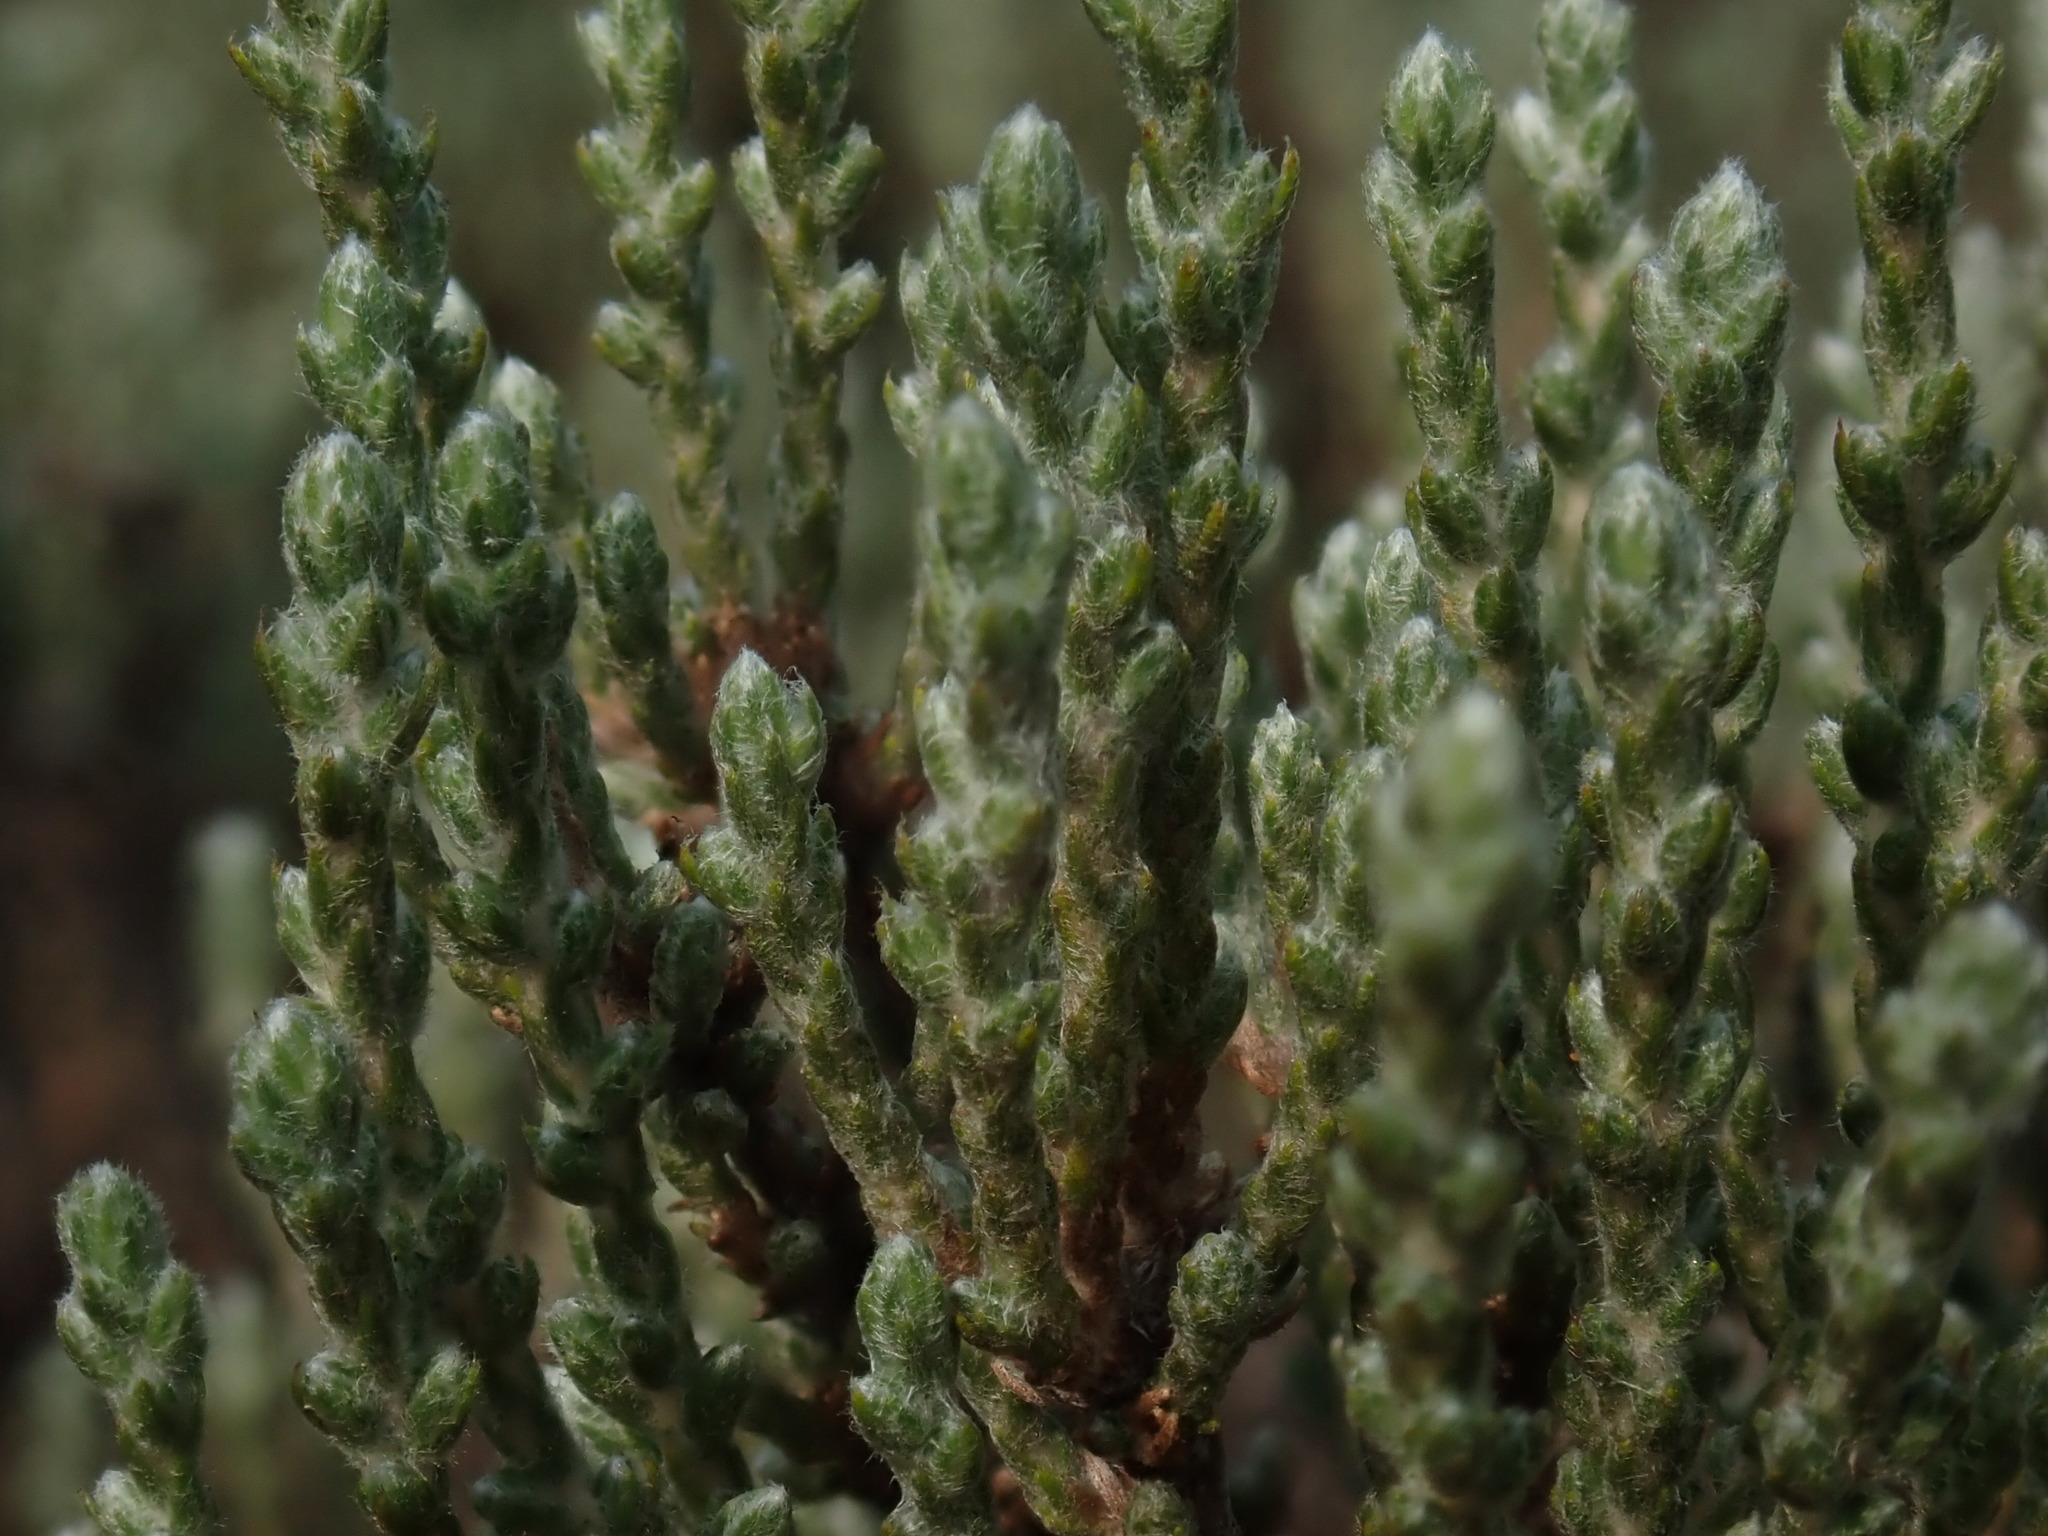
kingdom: Plantae
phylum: Tracheophyta
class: Magnoliopsida
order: Malvales
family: Cistaceae
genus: Hudsonia
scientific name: Hudsonia tomentosa
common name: Beach-heath
